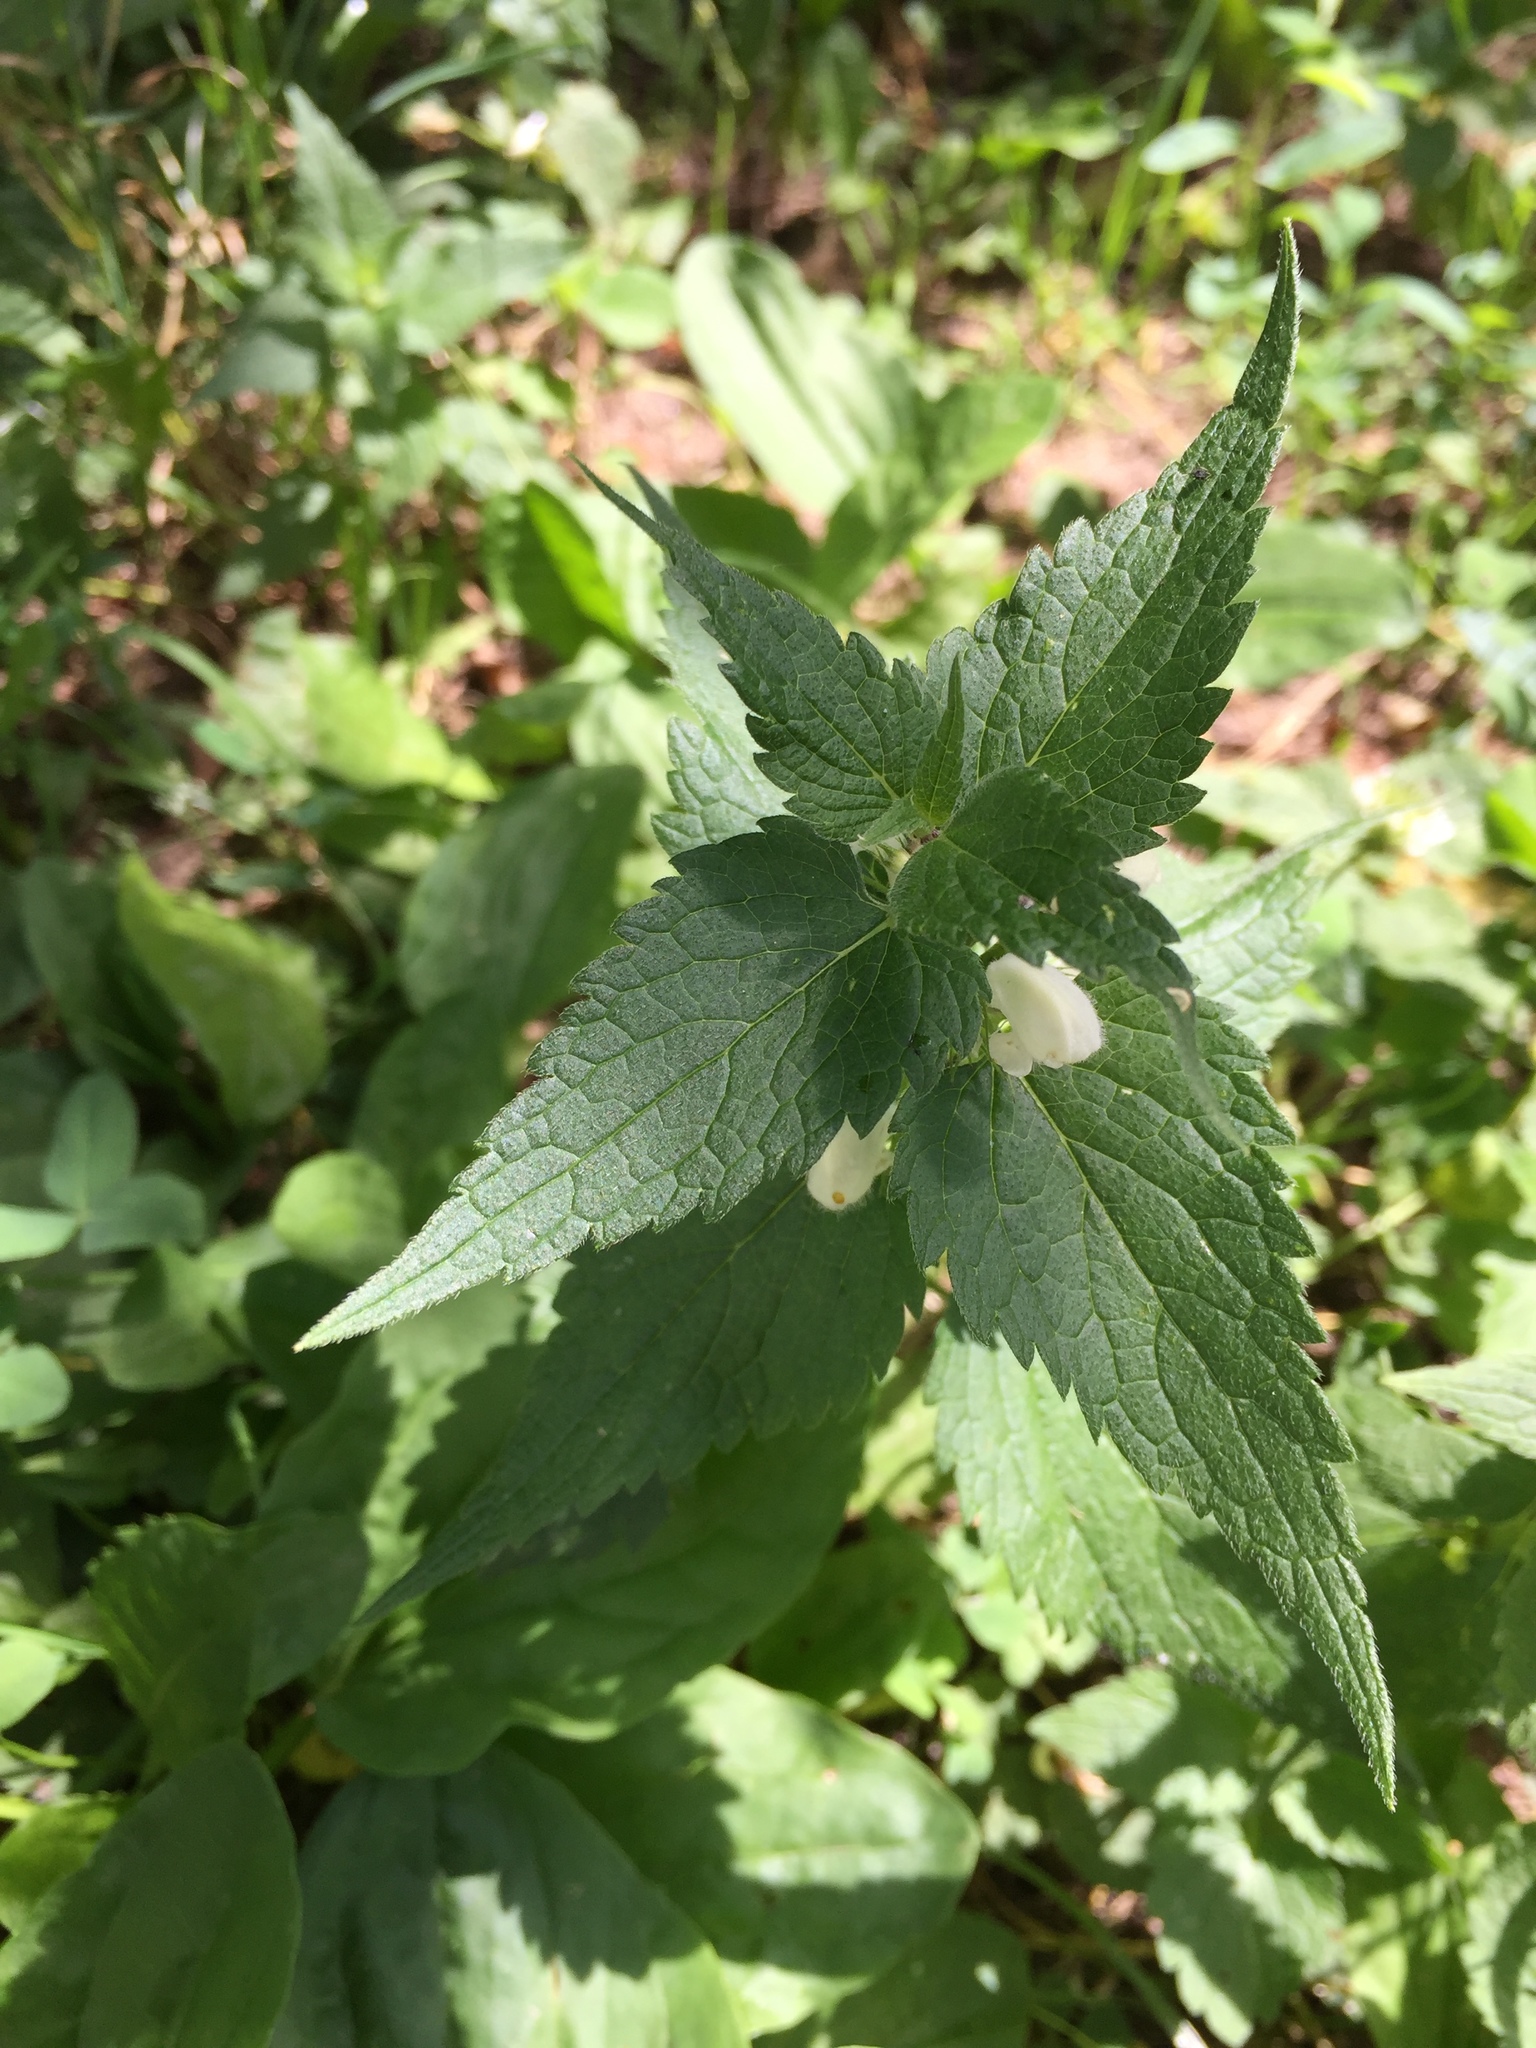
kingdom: Plantae
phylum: Tracheophyta
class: Magnoliopsida
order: Lamiales
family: Lamiaceae
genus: Lamium
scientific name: Lamium album
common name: White dead-nettle
